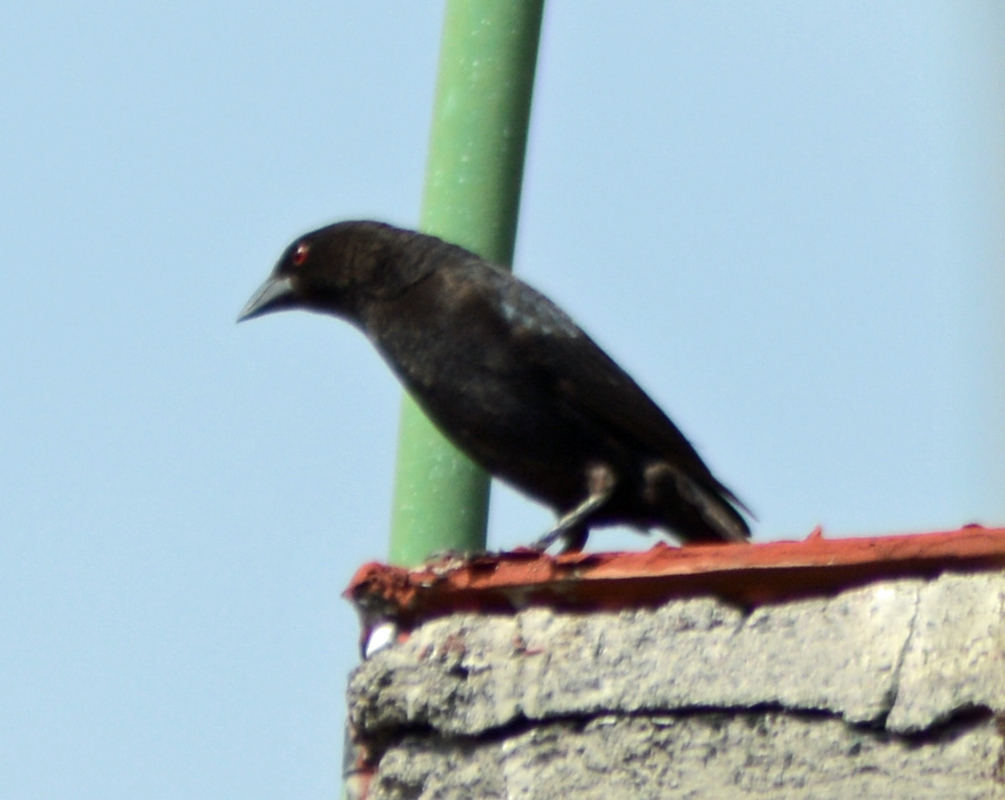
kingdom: Animalia
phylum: Chordata
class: Aves
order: Passeriformes
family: Icteridae
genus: Molothrus
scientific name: Molothrus aeneus
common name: Bronzed cowbird
